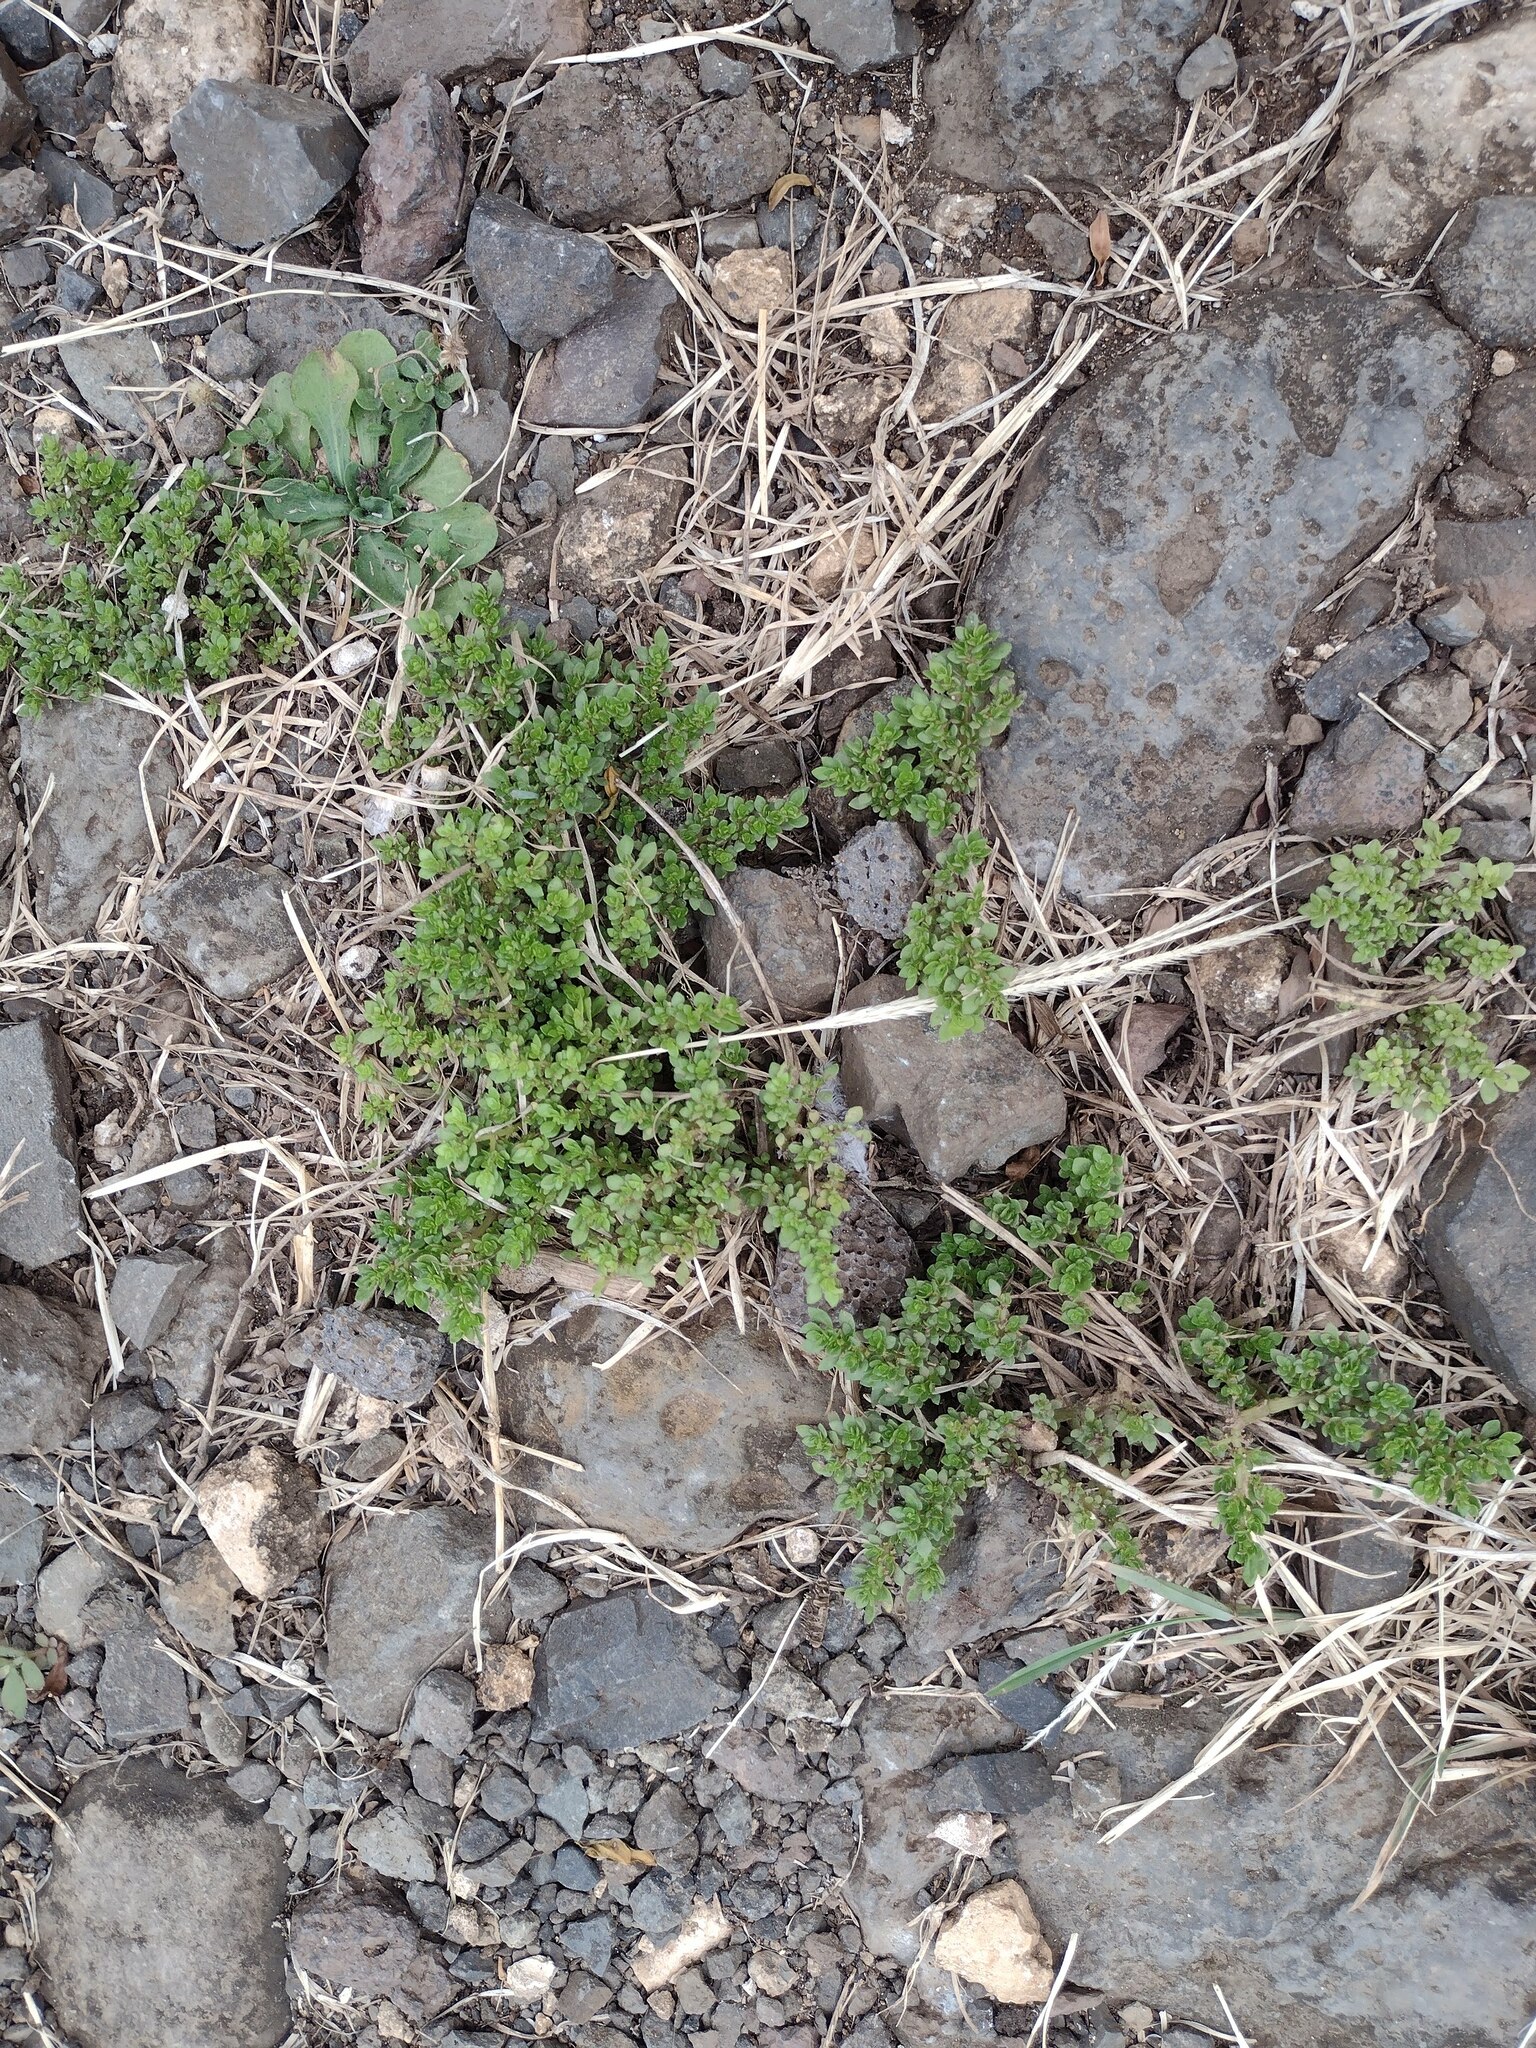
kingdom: Plantae
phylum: Tracheophyta
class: Magnoliopsida
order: Rosales
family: Urticaceae
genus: Pilea
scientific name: Pilea microphylla
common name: Artillery-plant
